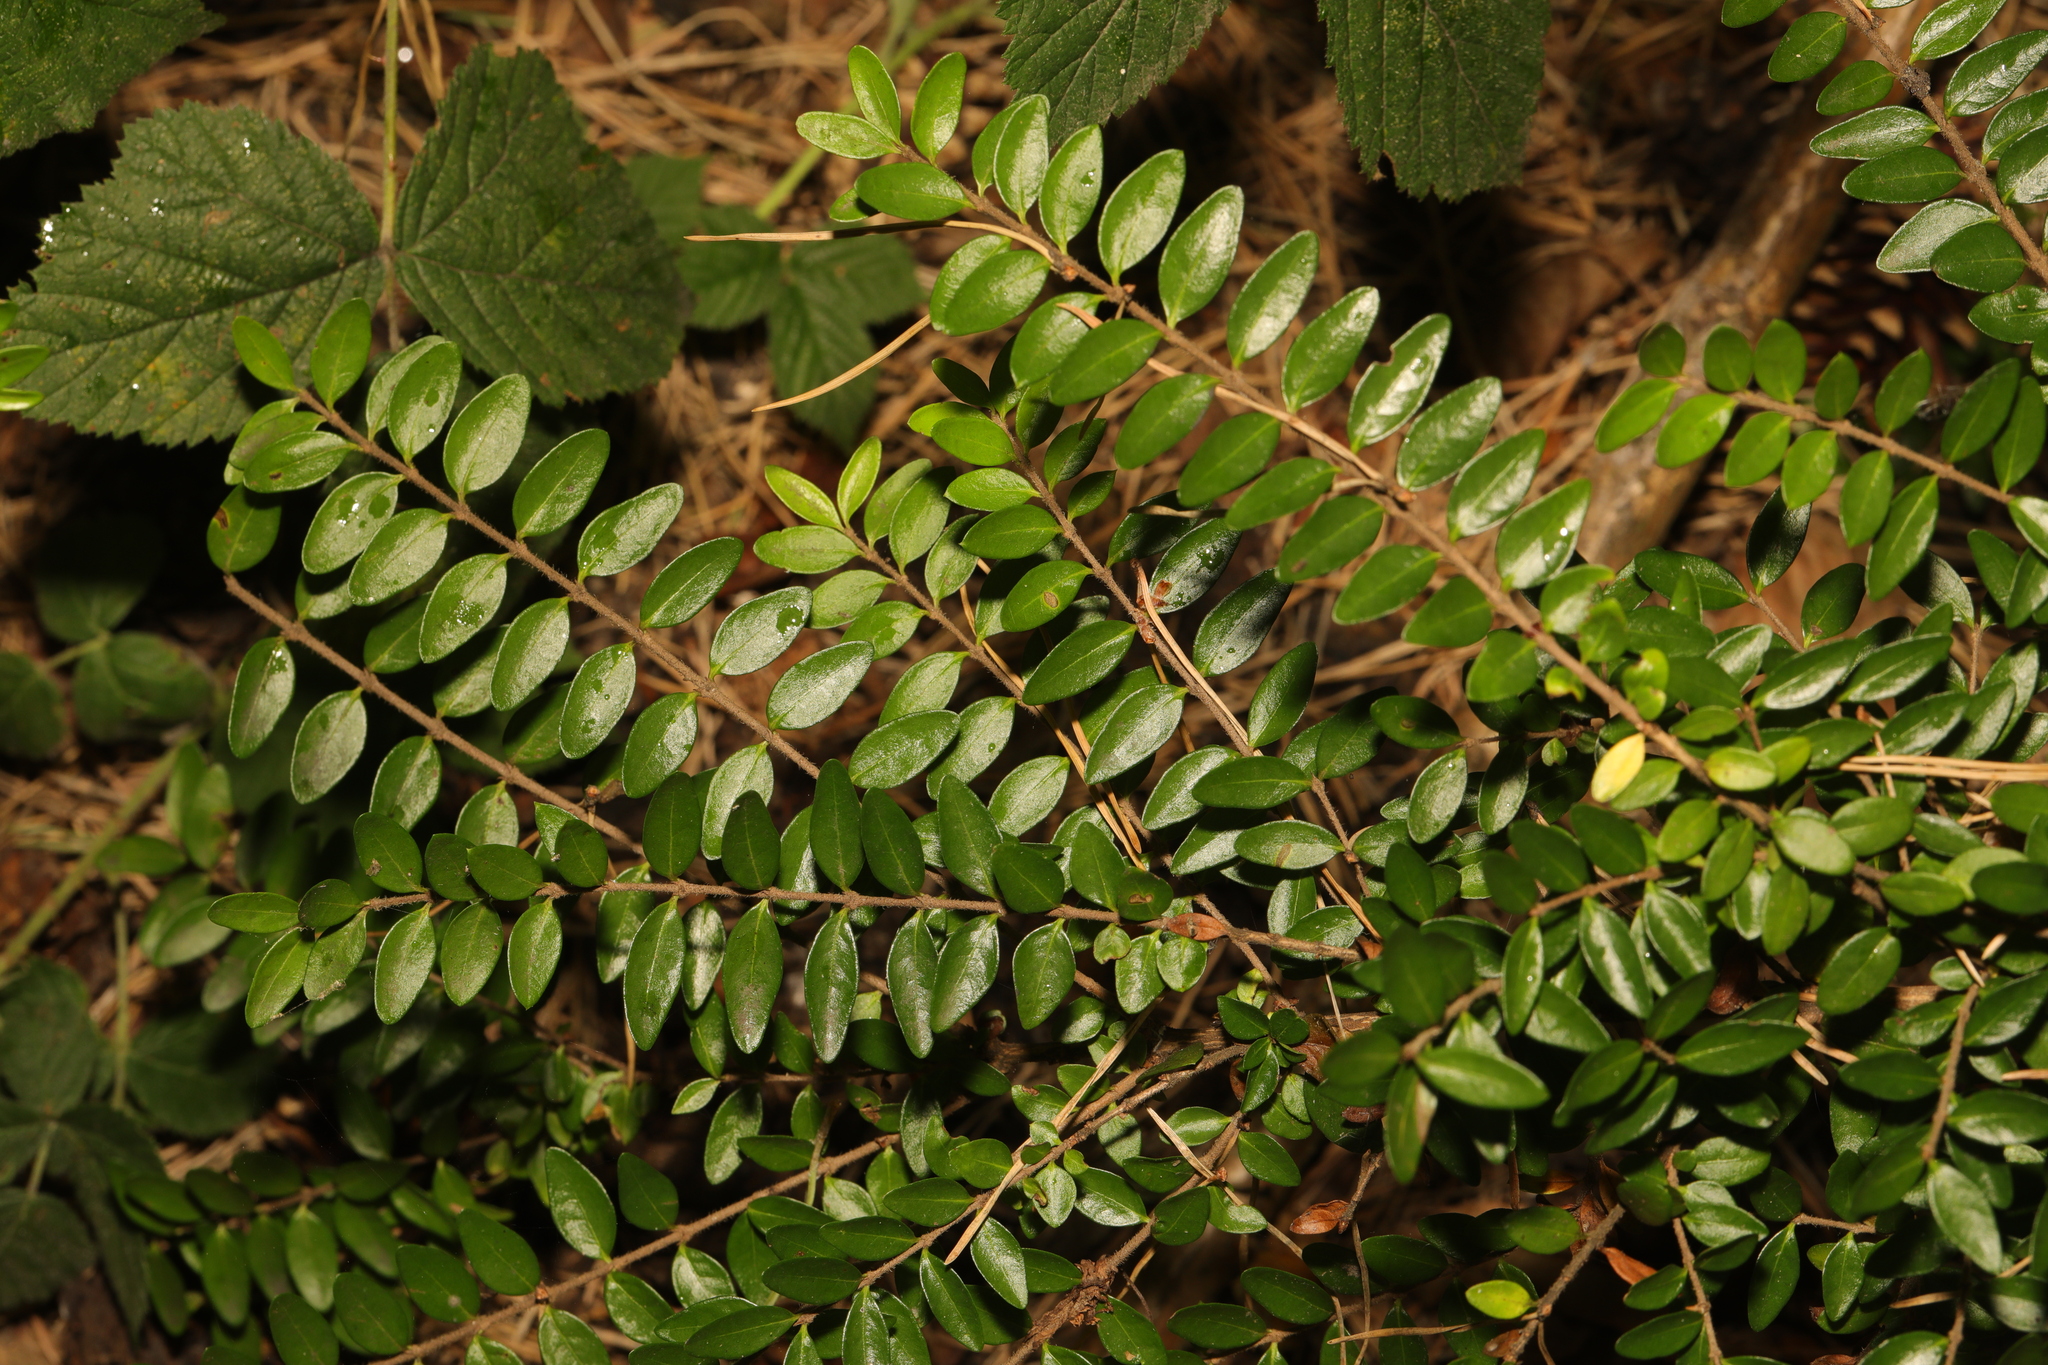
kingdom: Plantae
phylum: Tracheophyta
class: Magnoliopsida
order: Dipsacales
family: Caprifoliaceae
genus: Lonicera
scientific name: Lonicera ligustrina
